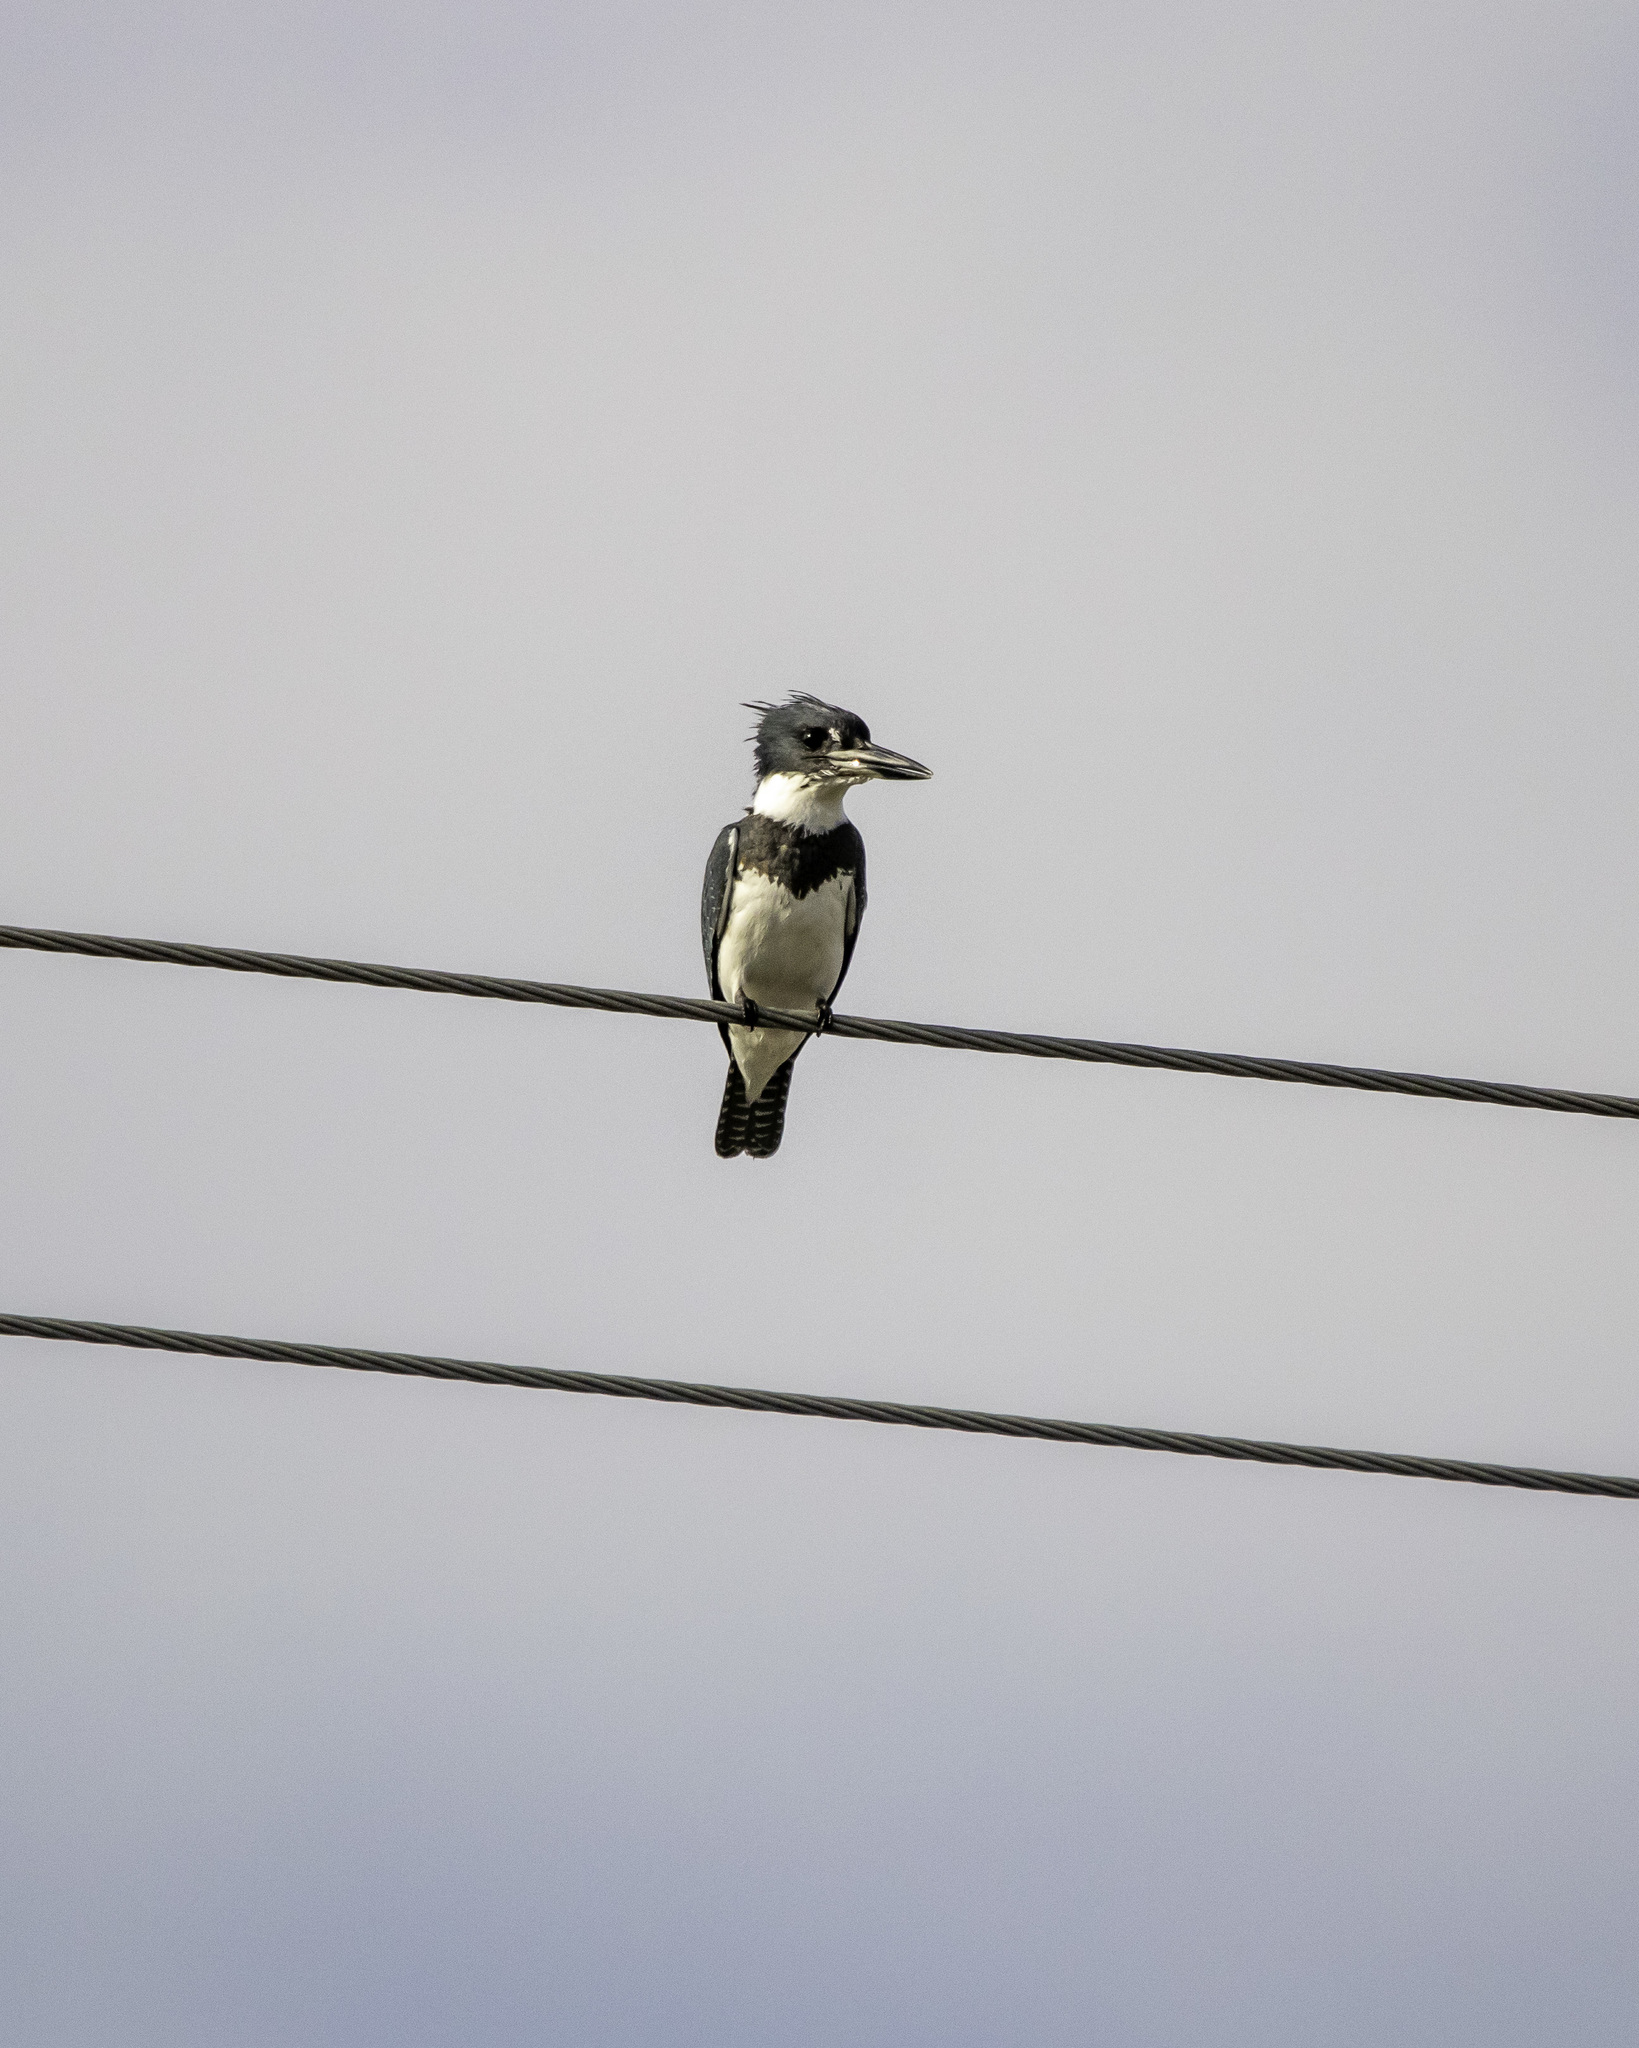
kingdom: Animalia
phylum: Chordata
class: Aves
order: Coraciiformes
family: Alcedinidae
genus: Megaceryle
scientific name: Megaceryle alcyon
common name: Belted kingfisher
